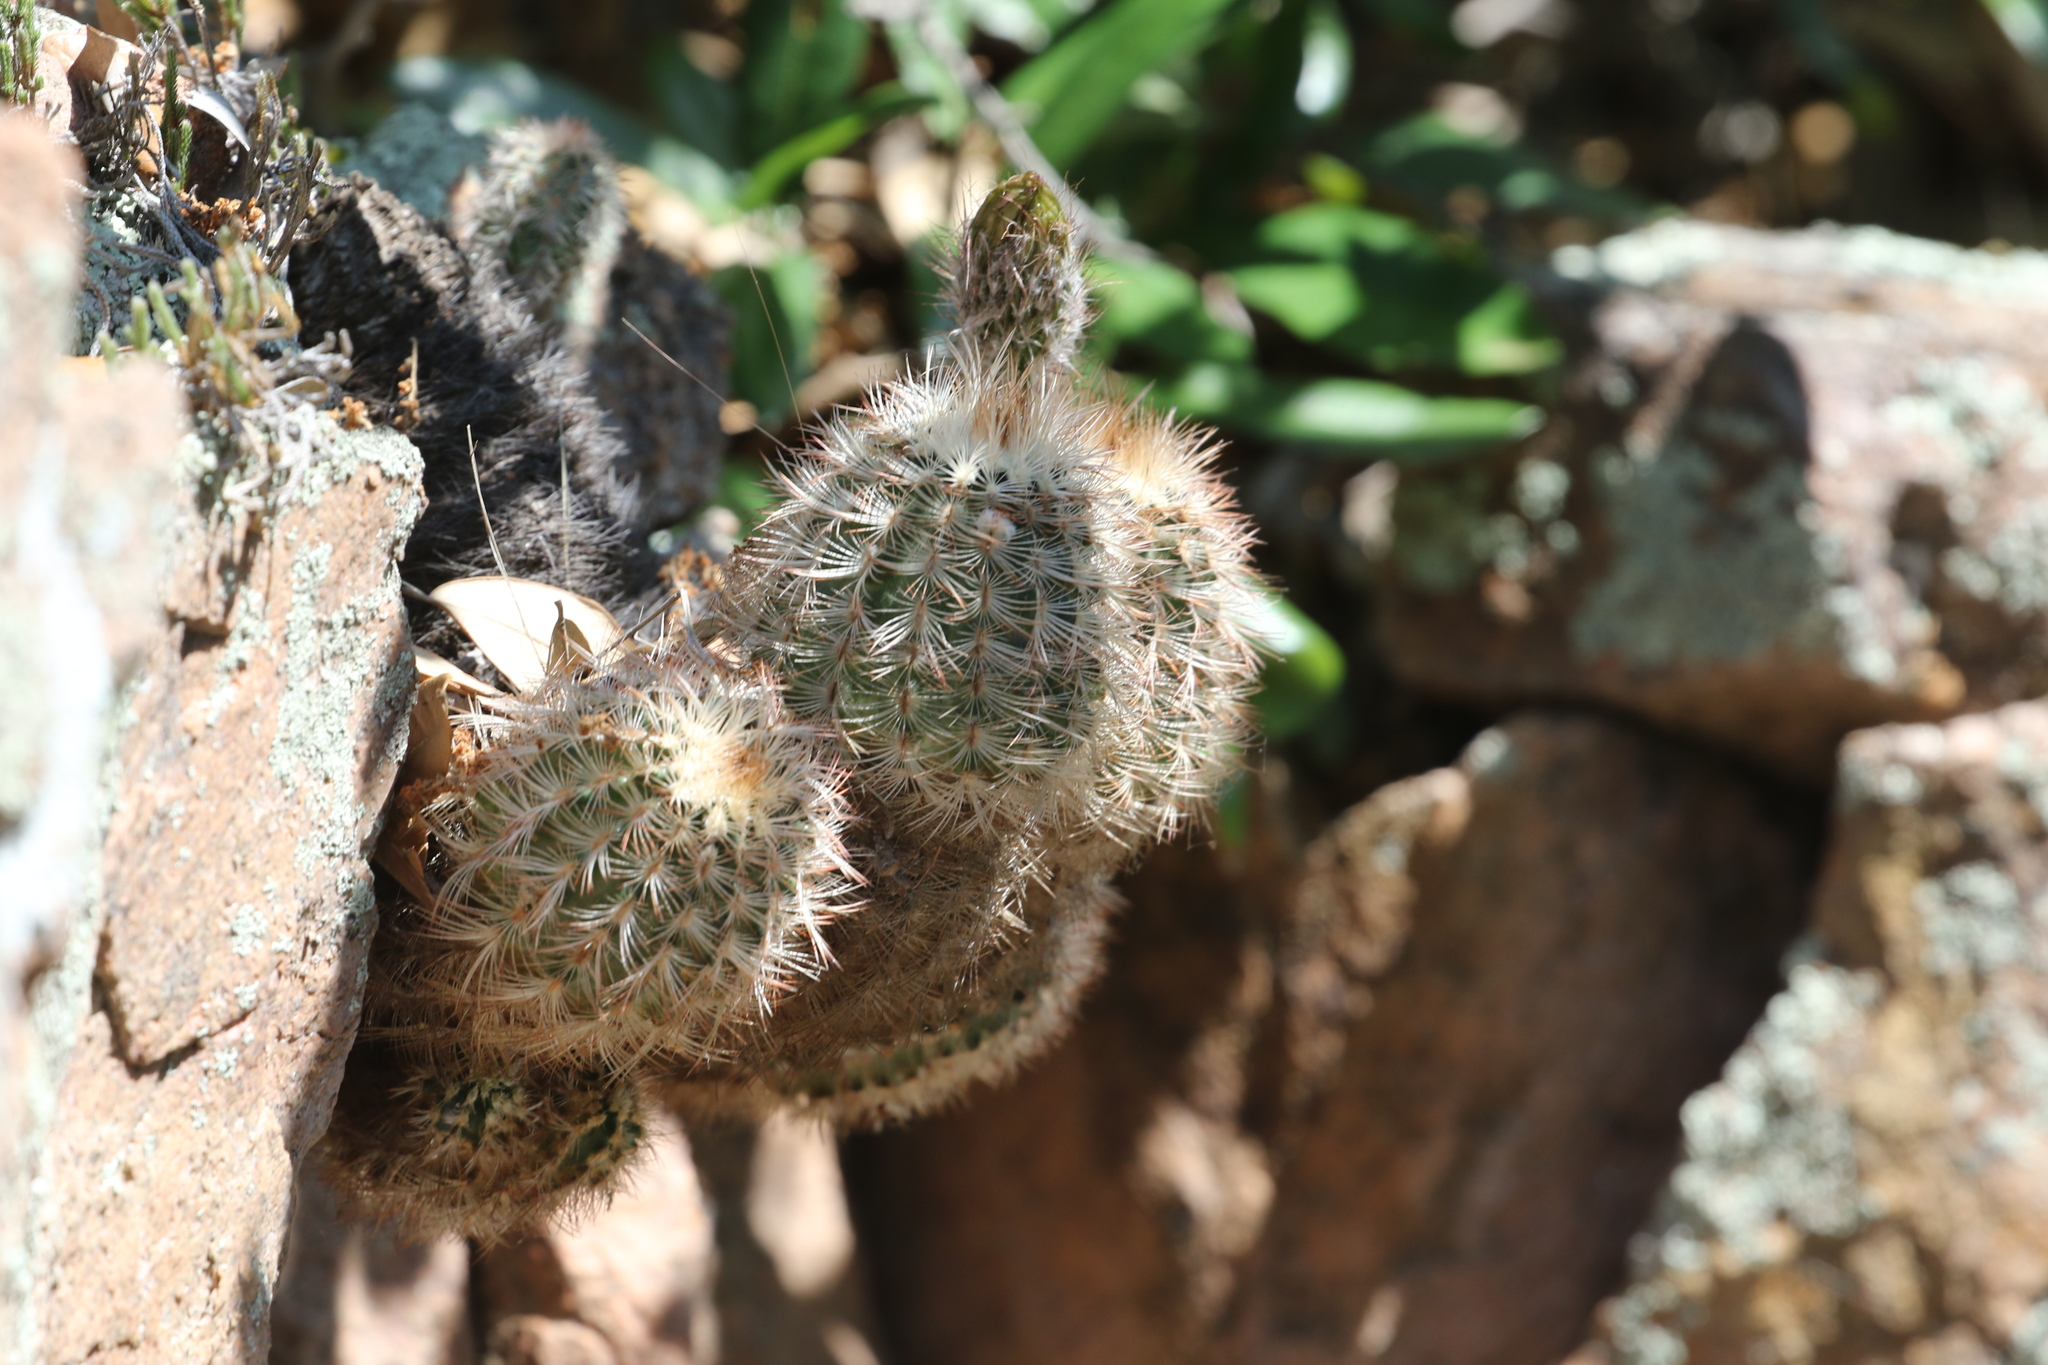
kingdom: Plantae
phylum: Tracheophyta
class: Magnoliopsida
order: Caryophyllales
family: Cactaceae
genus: Echinocereus
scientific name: Echinocereus reichenbachii
